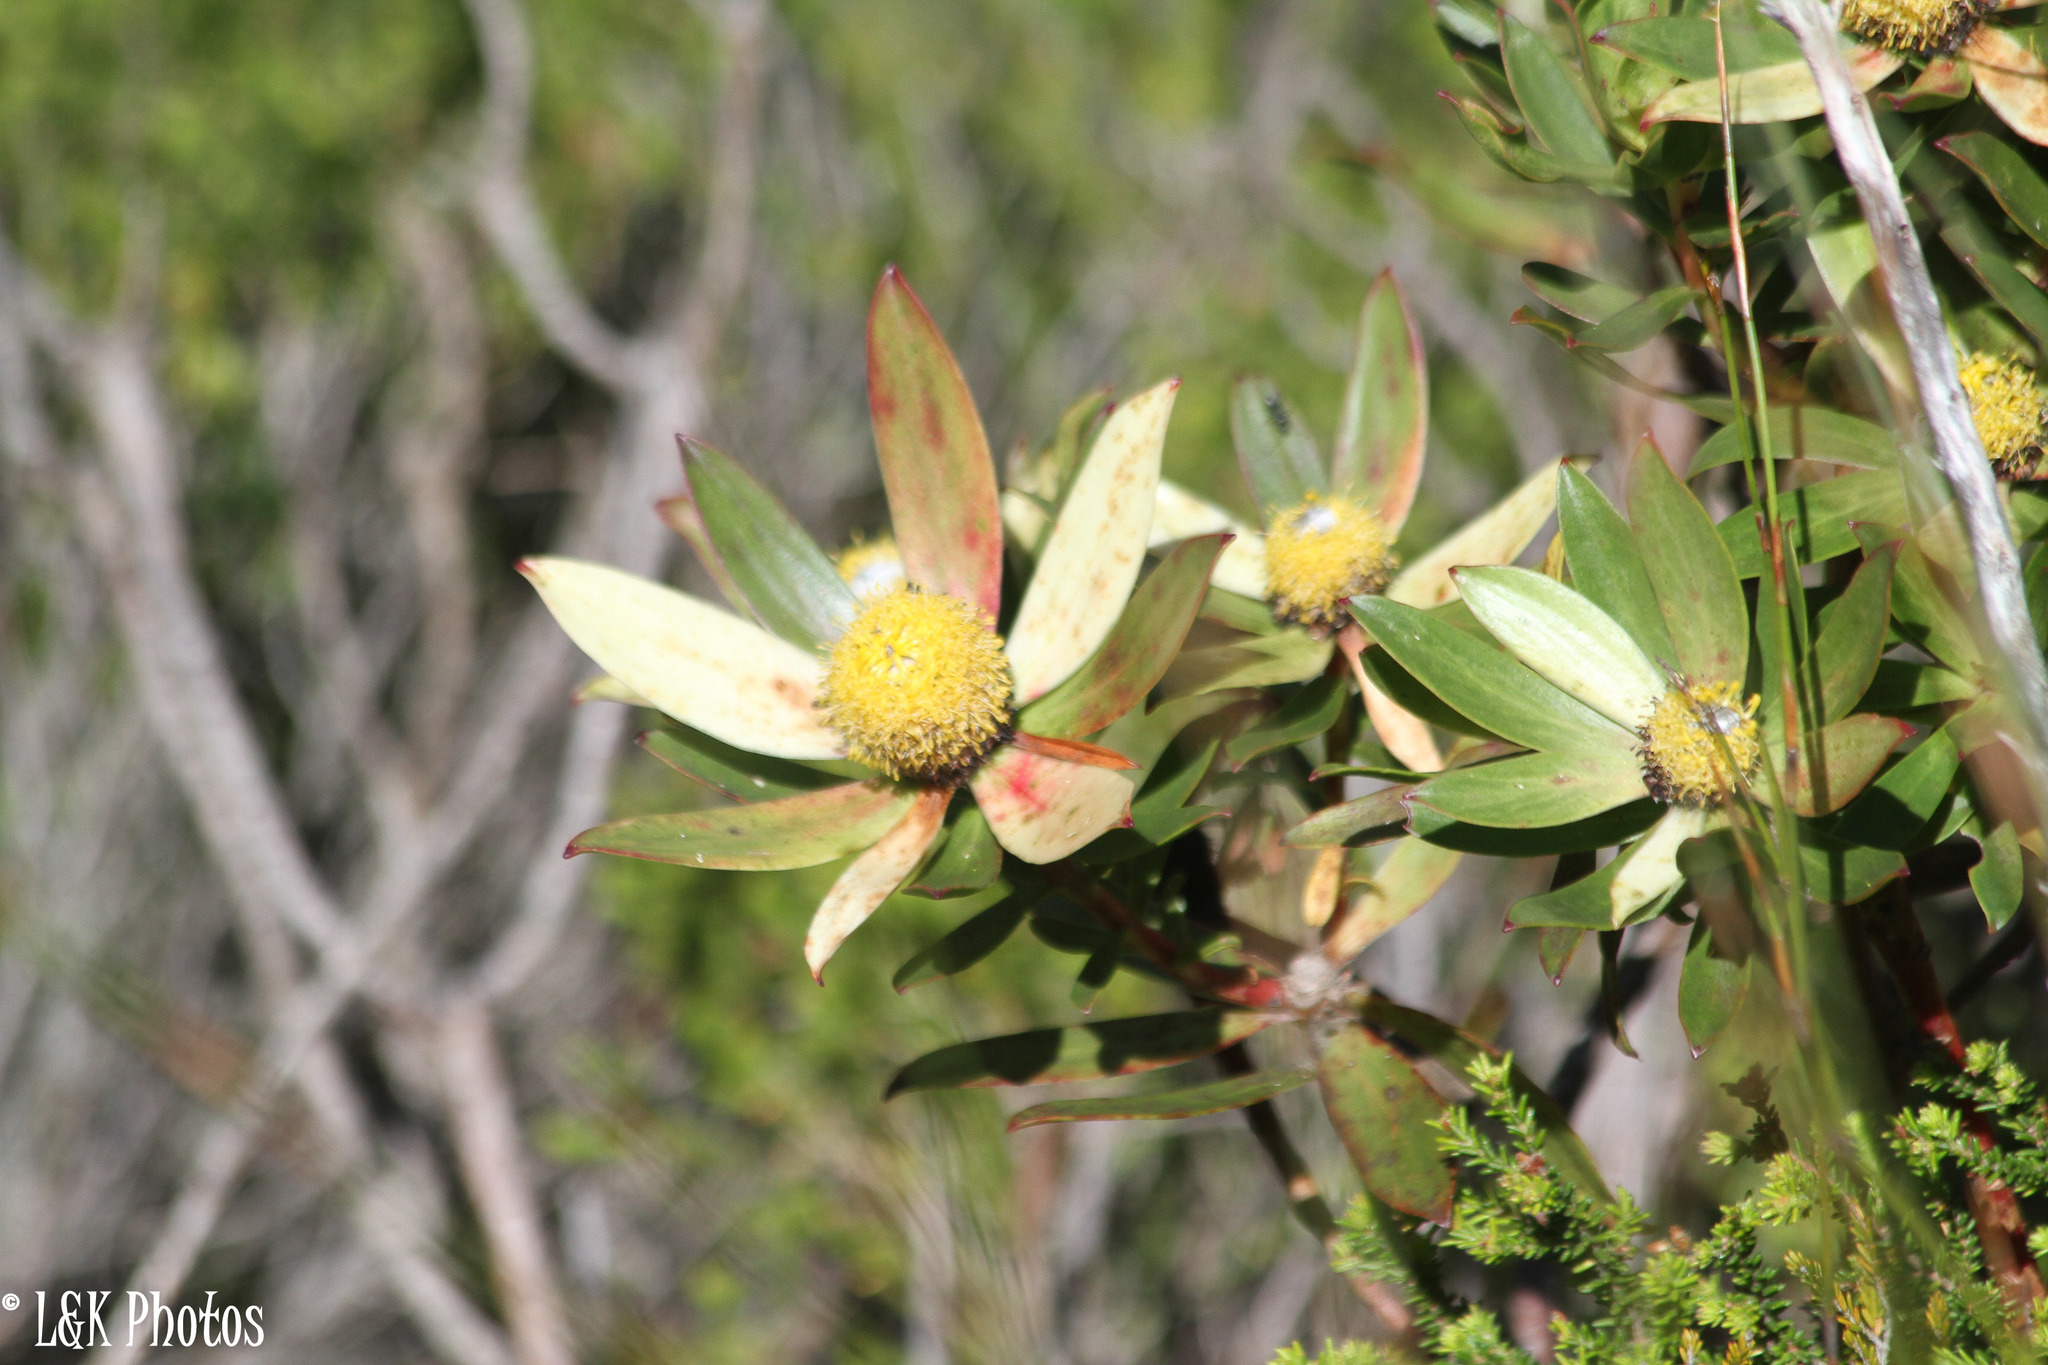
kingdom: Plantae
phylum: Tracheophyta
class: Magnoliopsida
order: Proteales
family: Proteaceae
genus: Leucadendron
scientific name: Leucadendron gandogeri
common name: Broad-leaf conebush
